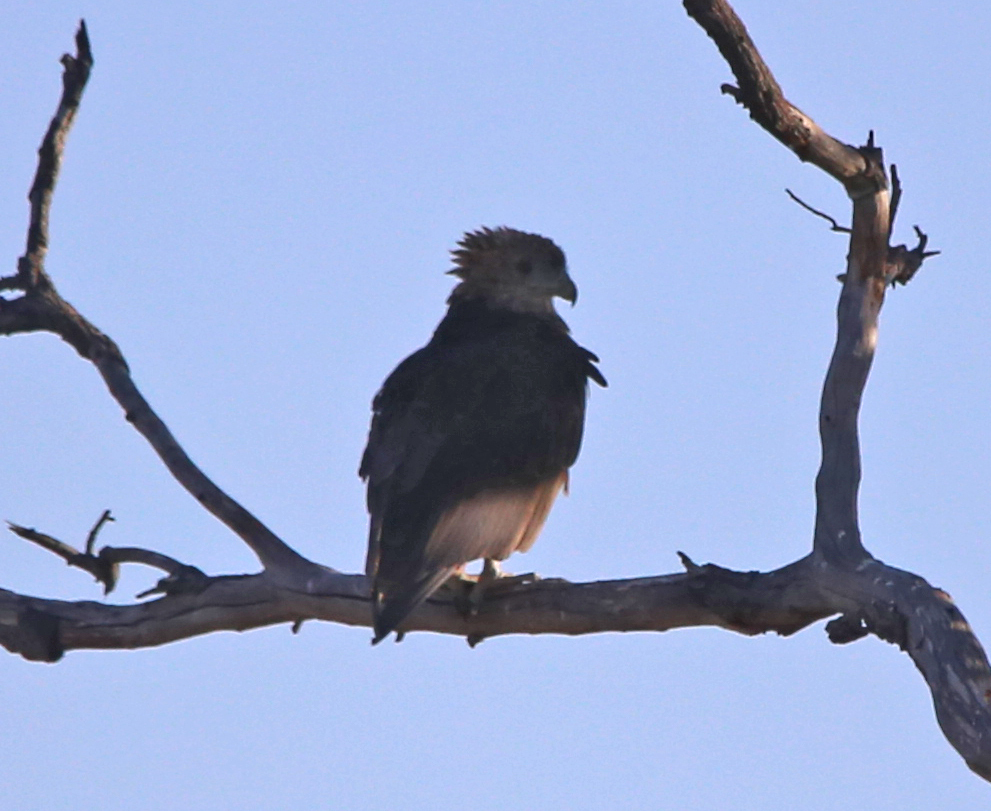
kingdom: Animalia
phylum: Chordata
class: Aves
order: Accipitriformes
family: Accipitridae
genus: Terathopius
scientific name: Terathopius ecaudatus
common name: Bateleur
